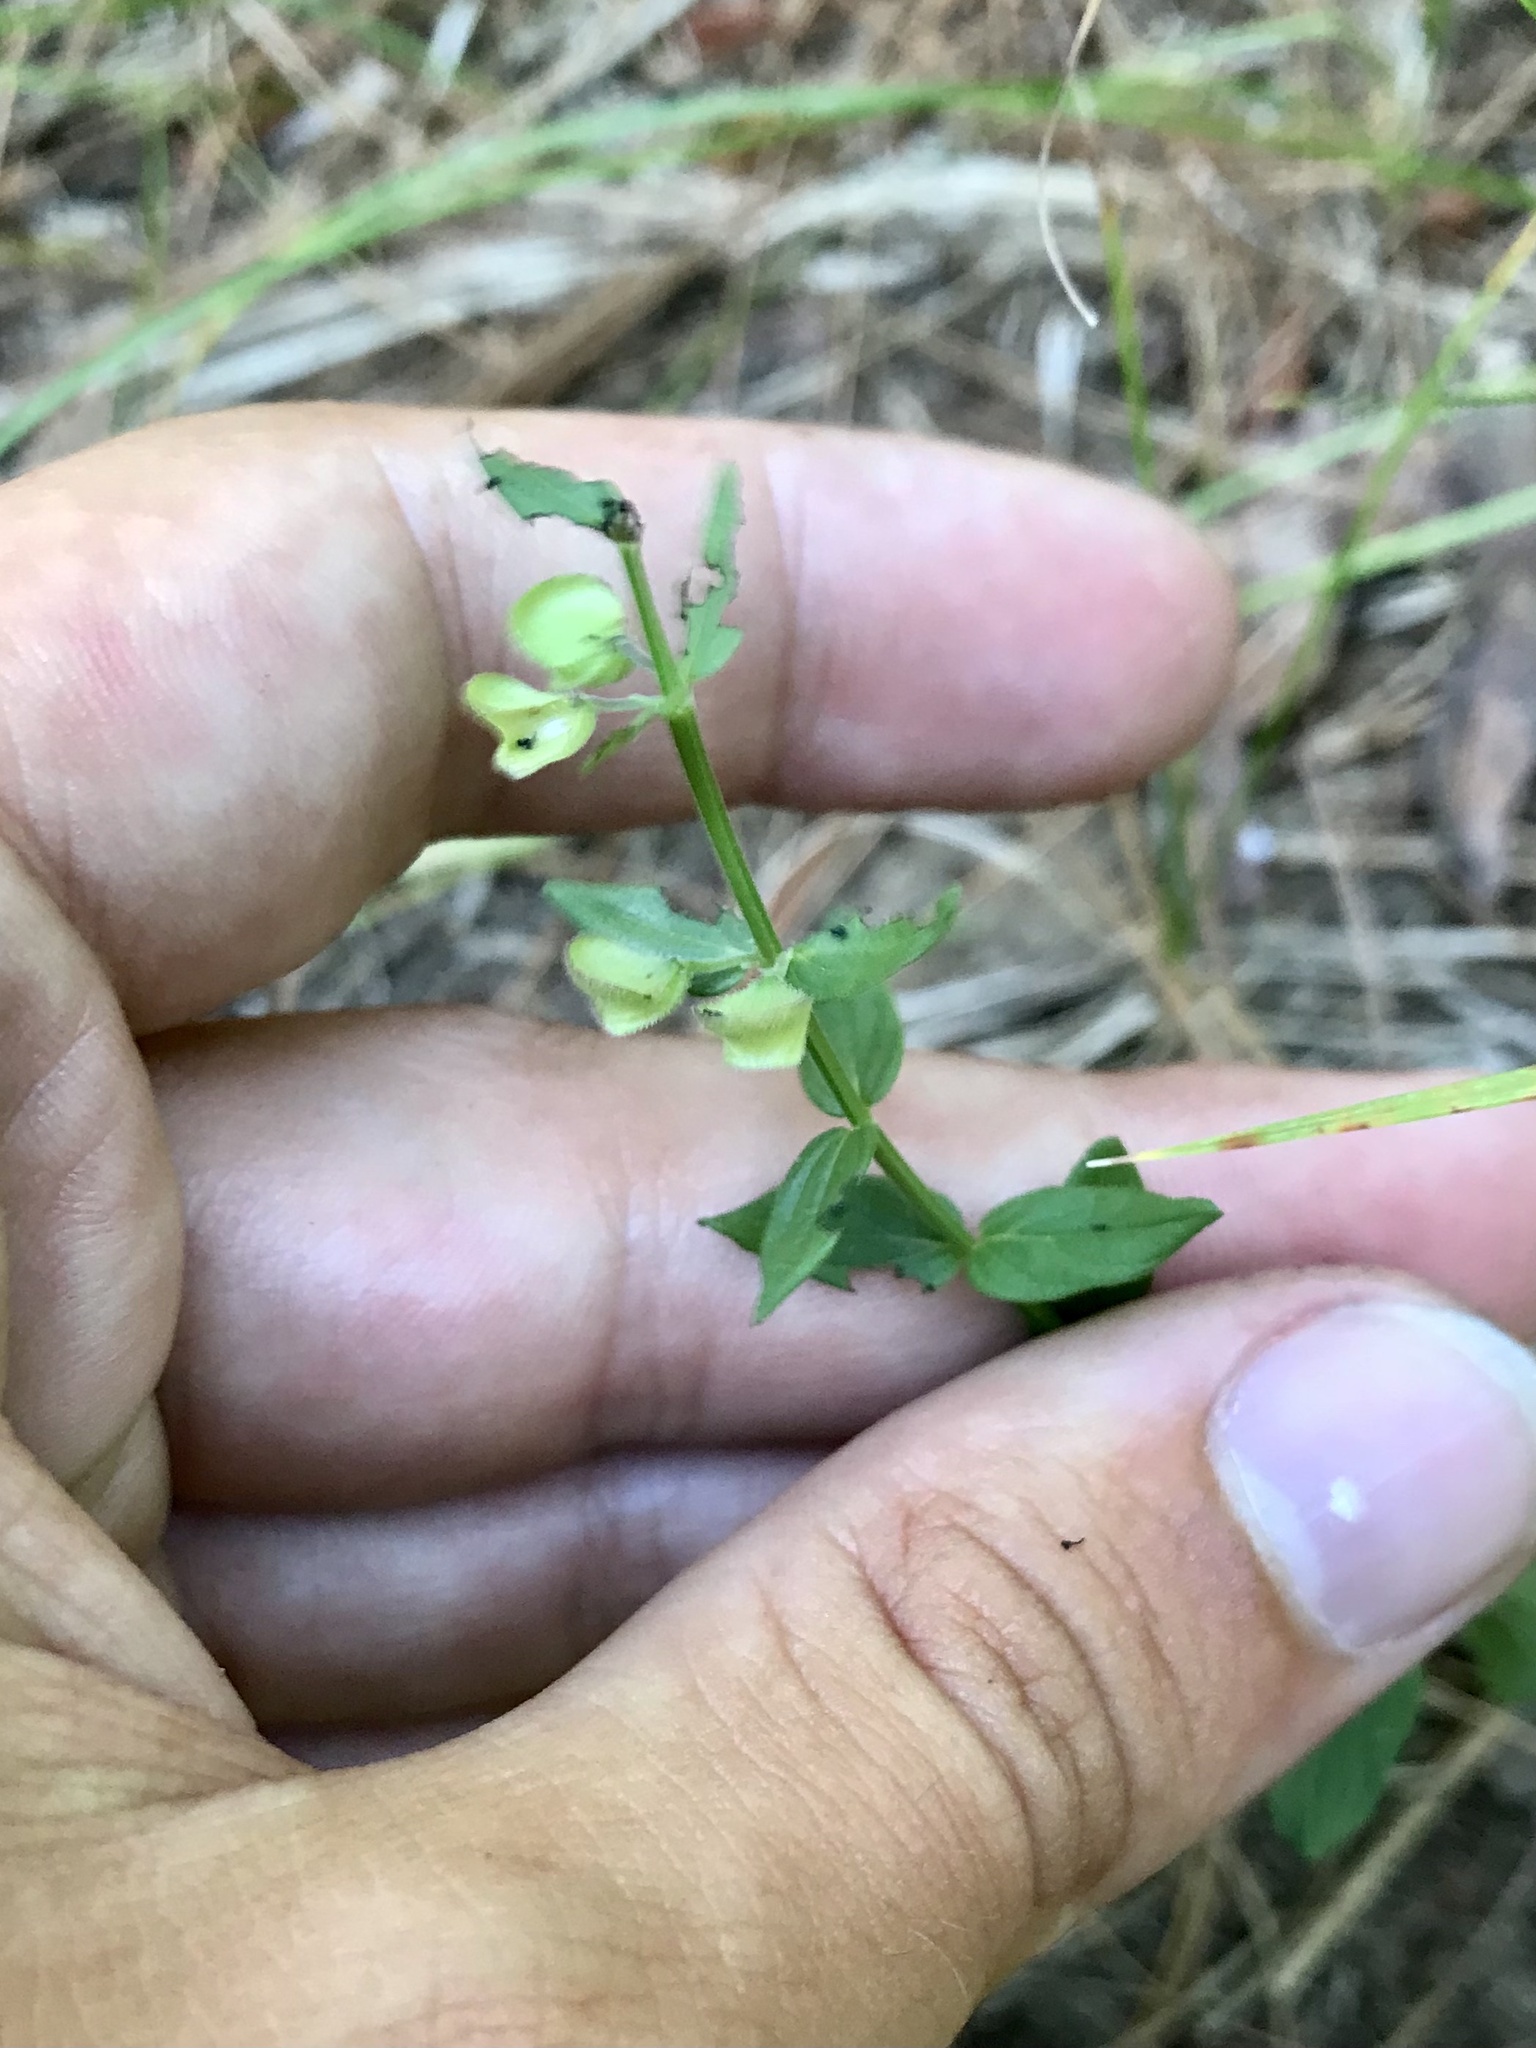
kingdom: Plantae
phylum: Tracheophyta
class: Magnoliopsida
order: Lamiales
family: Lamiaceae
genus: Scutellaria
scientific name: Scutellaria parvula
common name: Little scullcap
